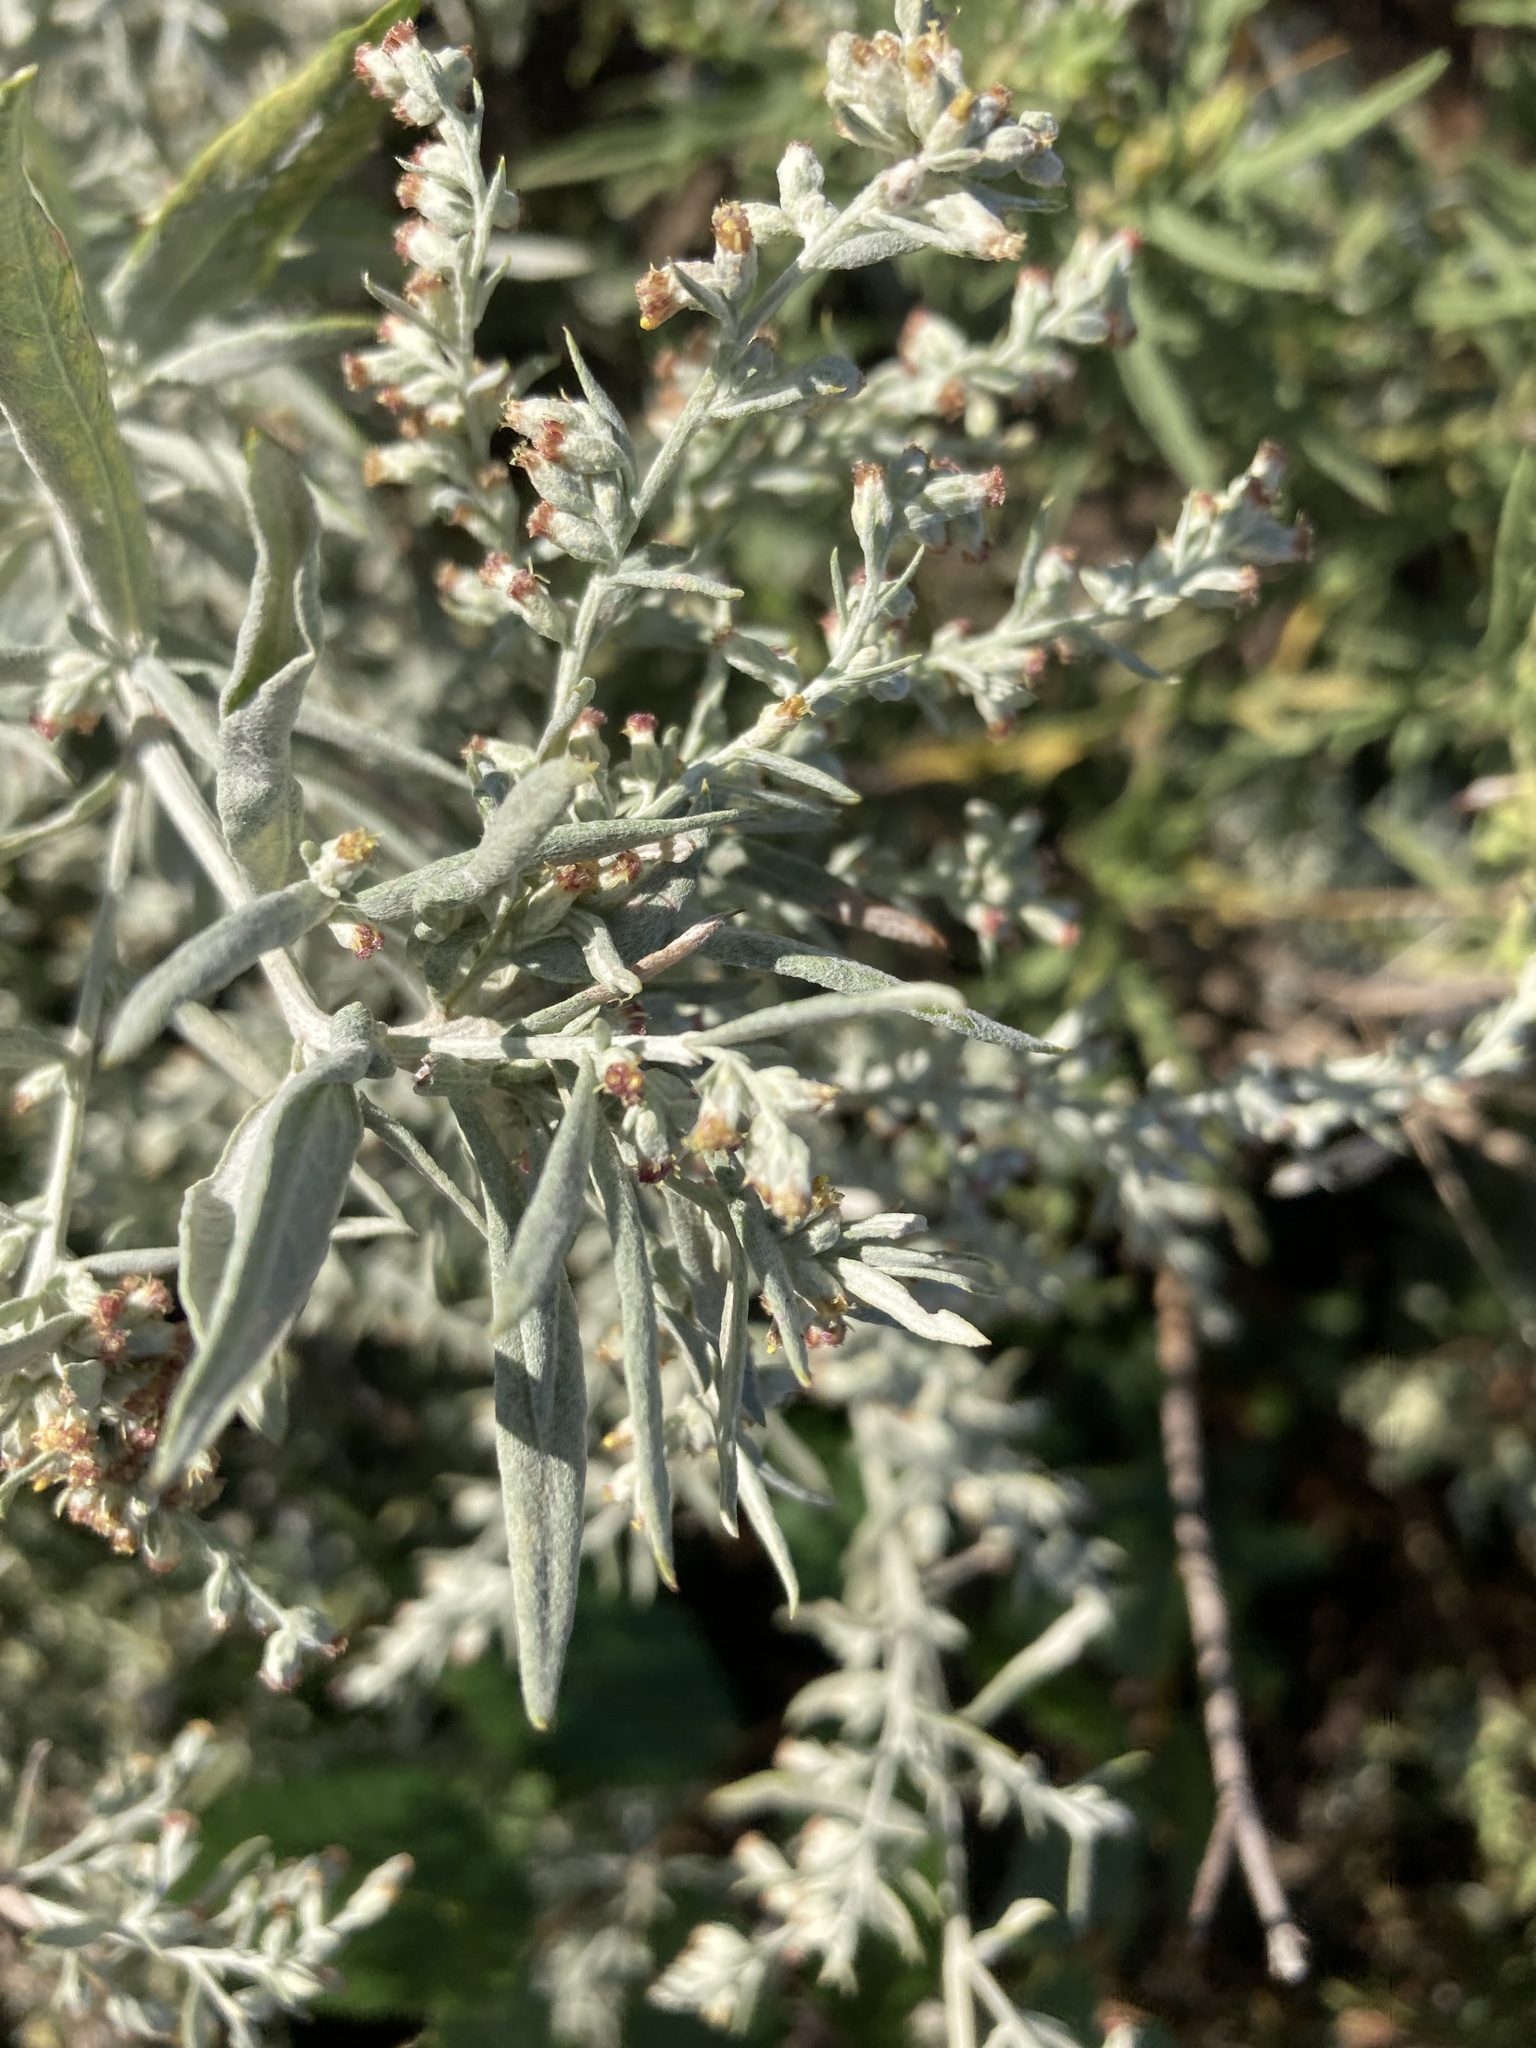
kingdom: Plantae
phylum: Tracheophyta
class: Magnoliopsida
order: Asterales
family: Asteraceae
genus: Artemisia
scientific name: Artemisia ludoviciana
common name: Western mugwort
